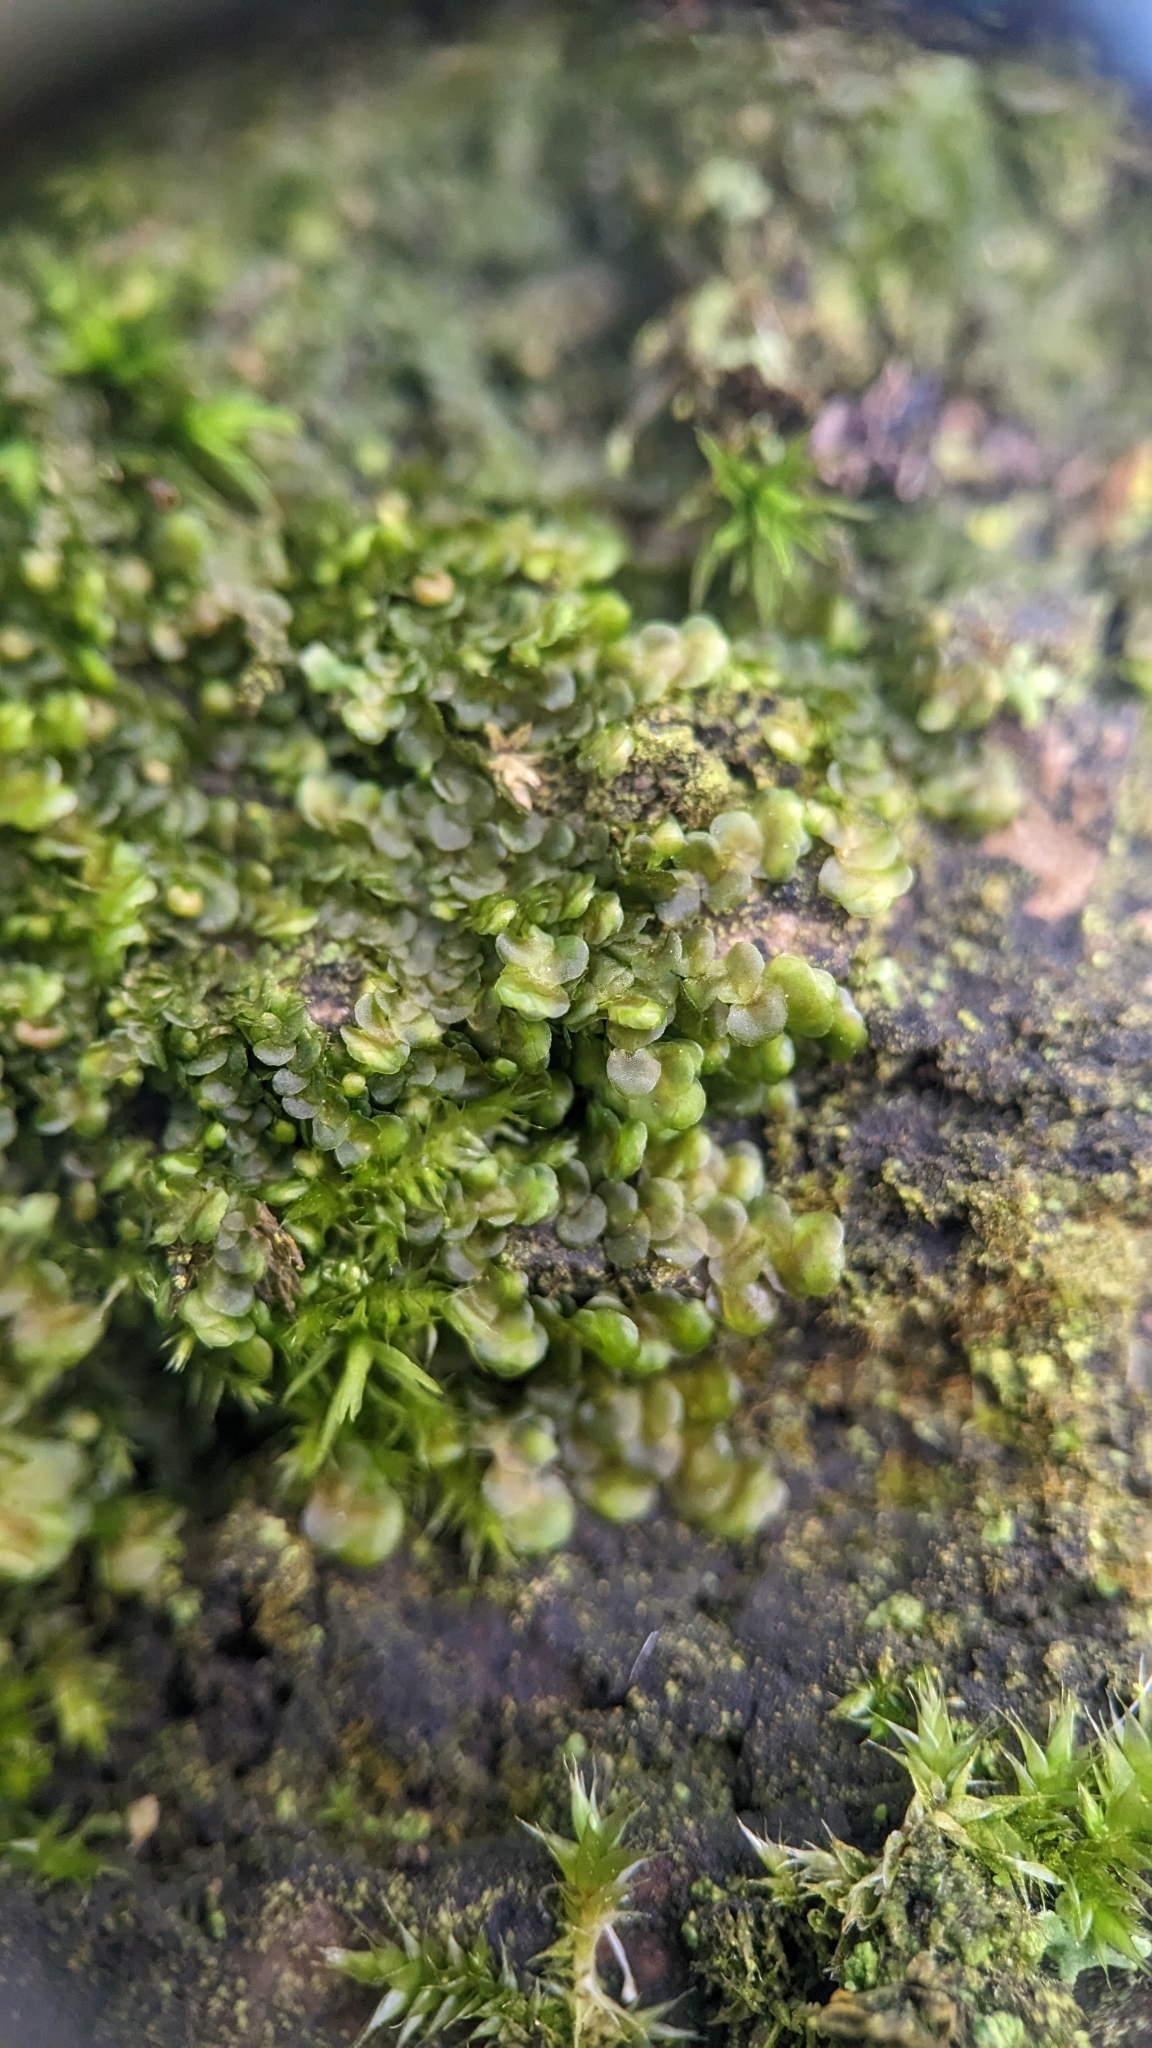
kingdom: Plantae
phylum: Marchantiophyta
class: Jungermanniopsida
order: Porellales
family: Frullaniaceae
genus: Frullania
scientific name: Frullania dilatata
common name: Dilated scalewort
